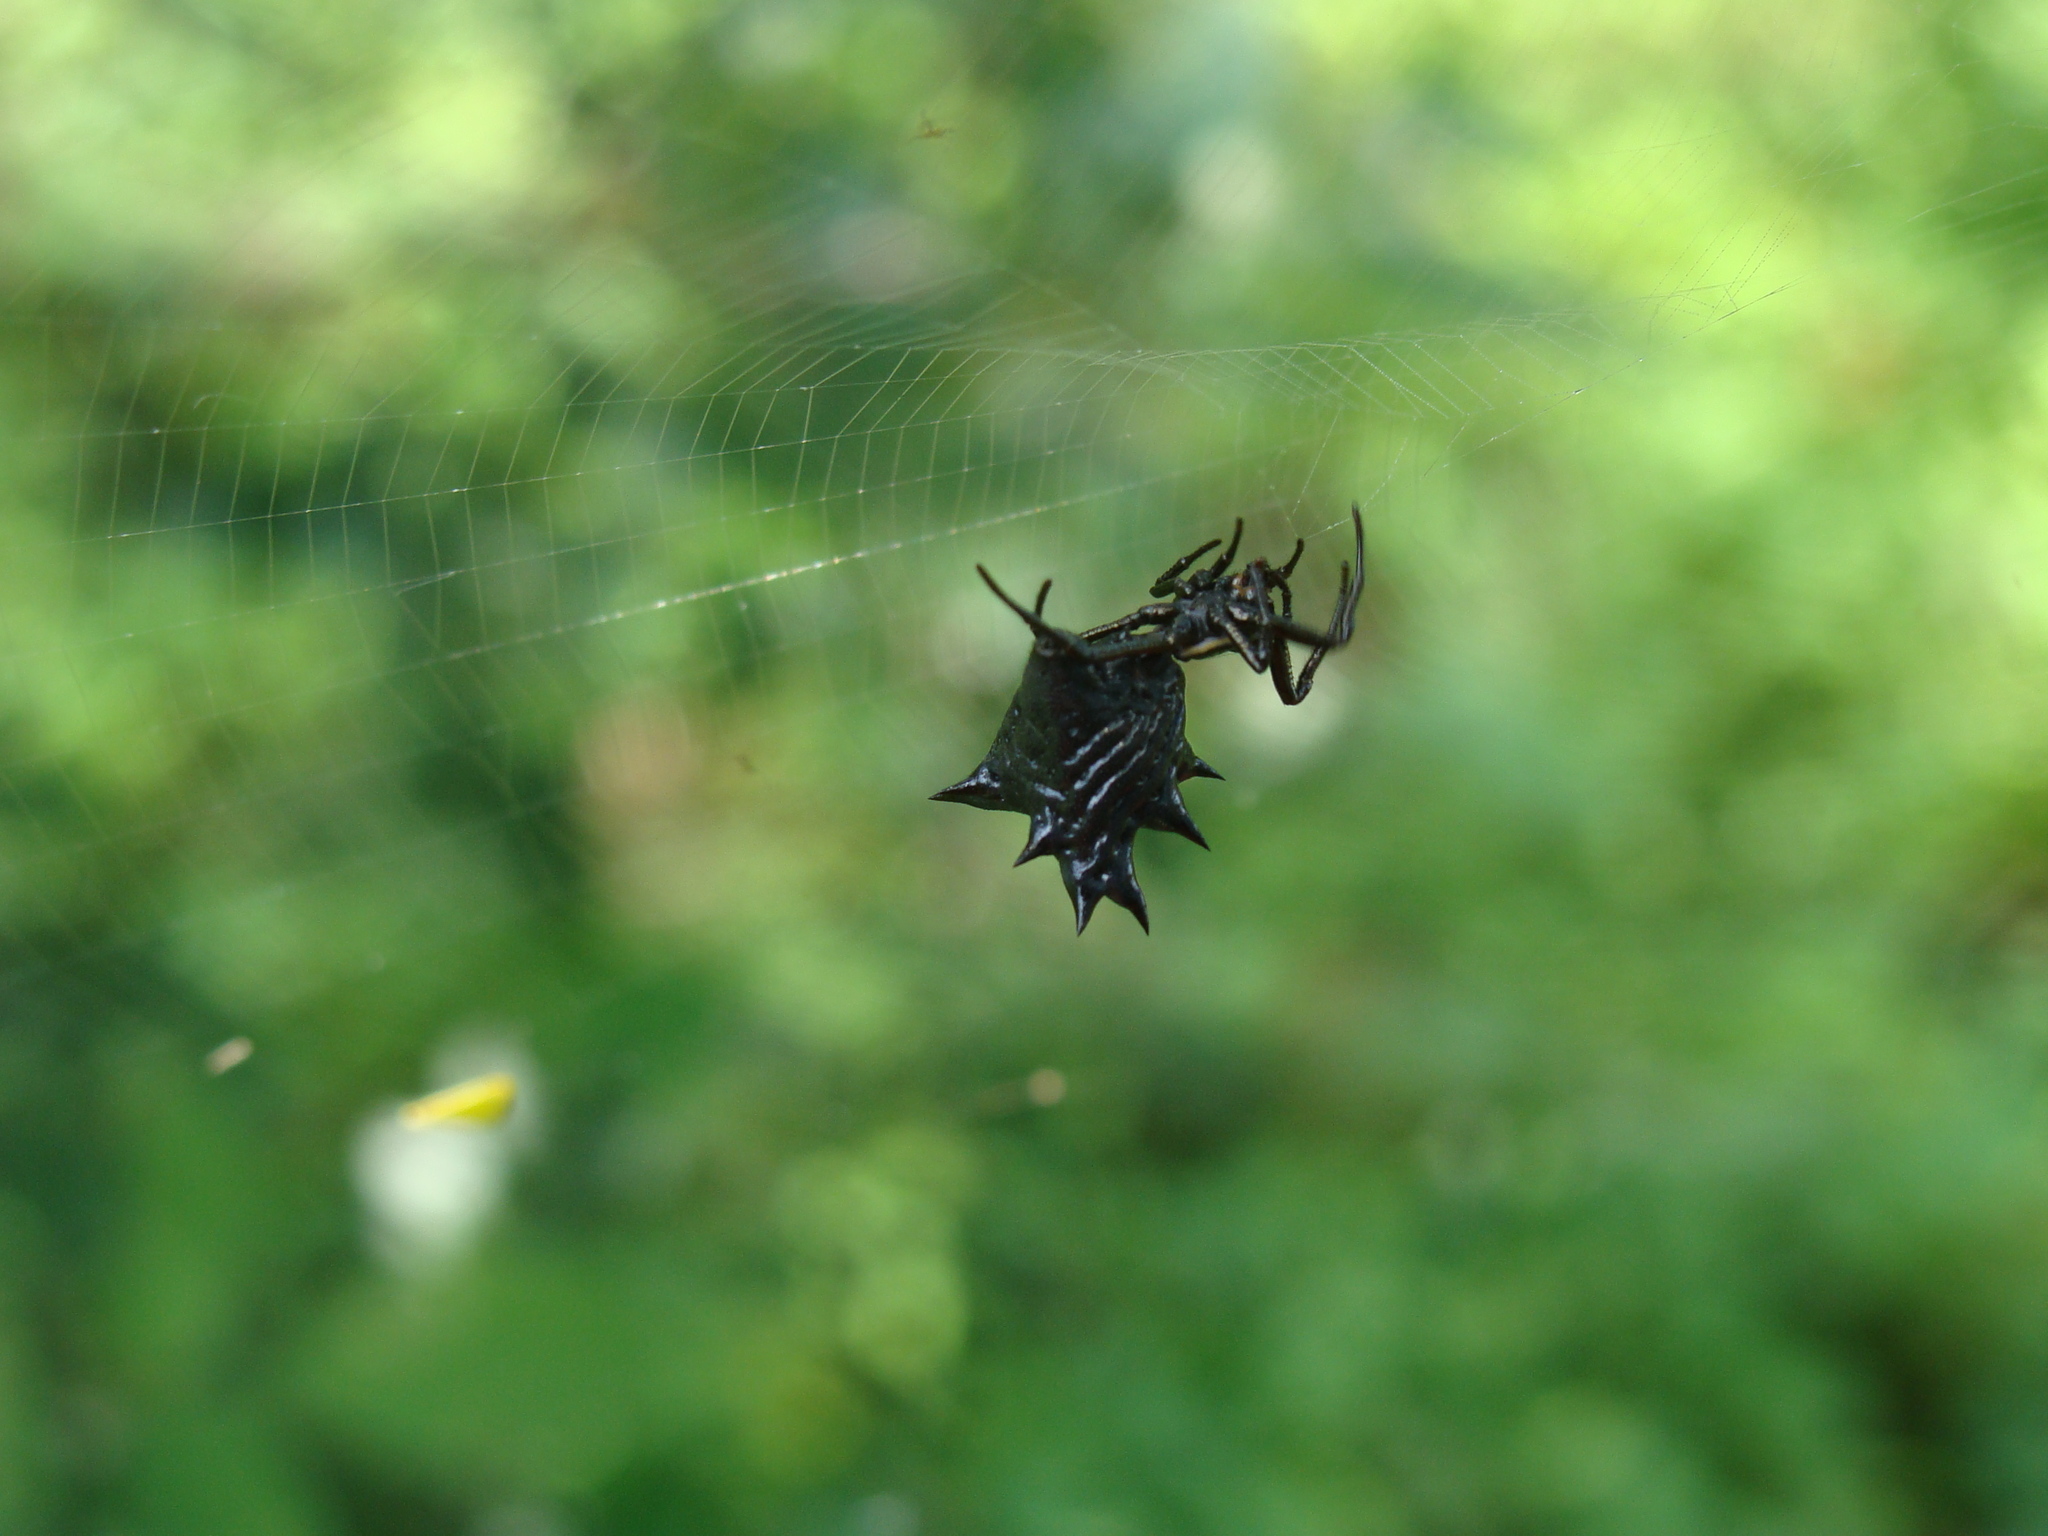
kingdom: Animalia
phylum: Arthropoda
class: Arachnida
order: Araneae
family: Araneidae
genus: Micrathena
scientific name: Micrathena gracilis
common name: Orb weavers
